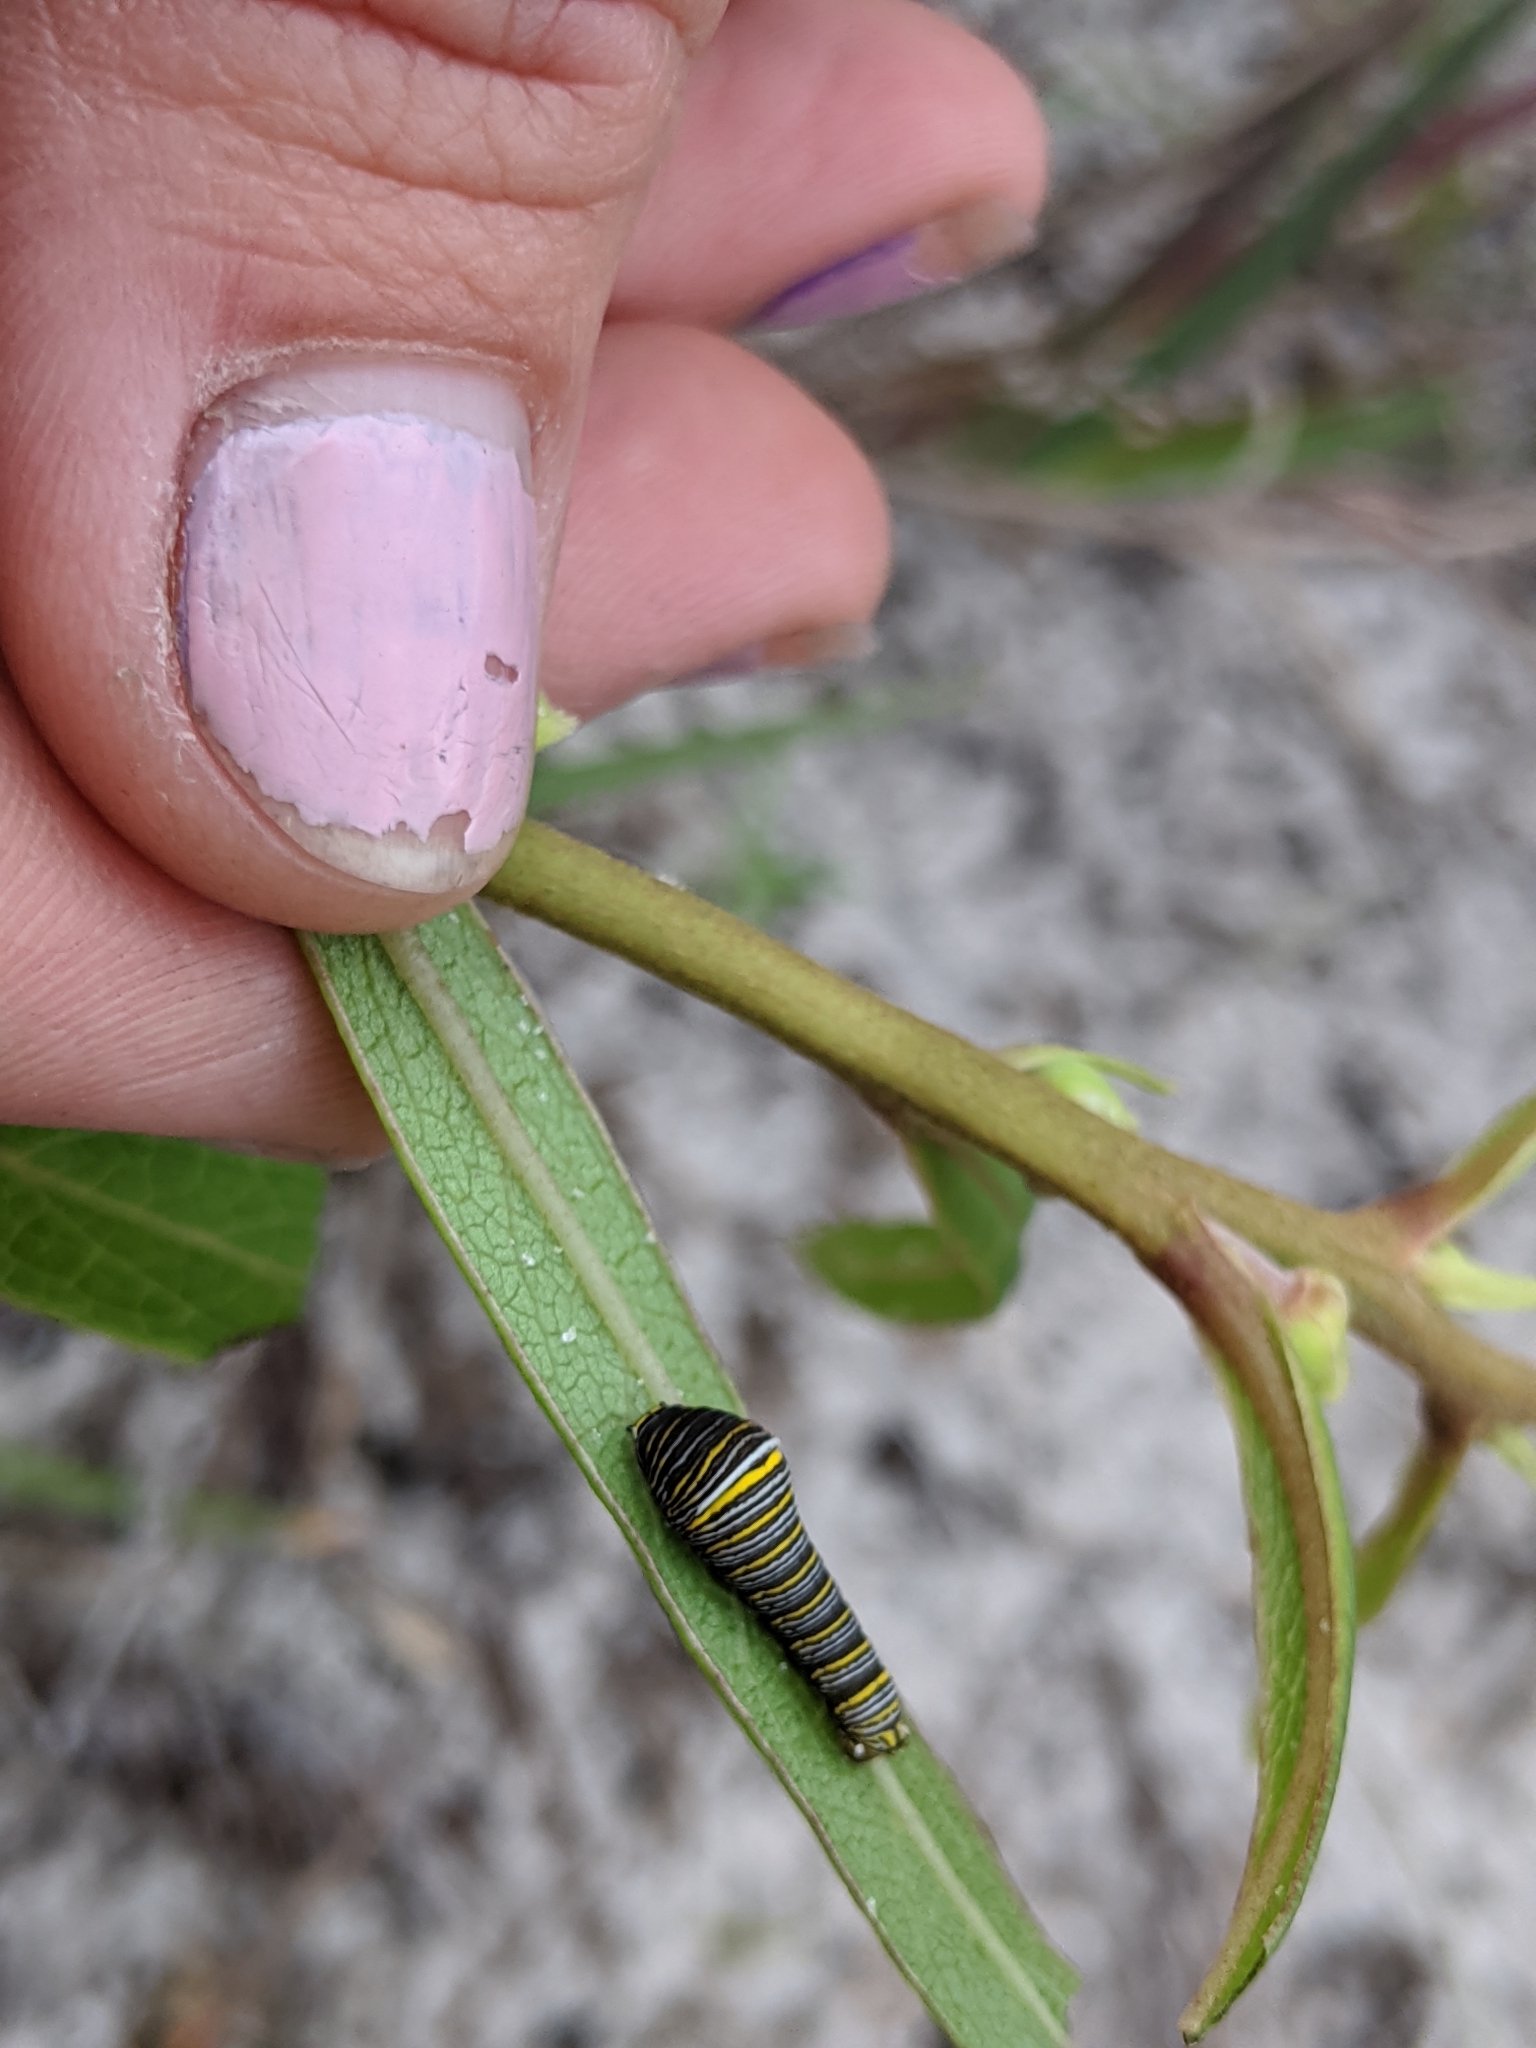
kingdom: Animalia
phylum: Arthropoda
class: Insecta
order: Lepidoptera
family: Papilionidae
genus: Protographium
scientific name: Protographium marcellus
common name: Zebra swallowtail
